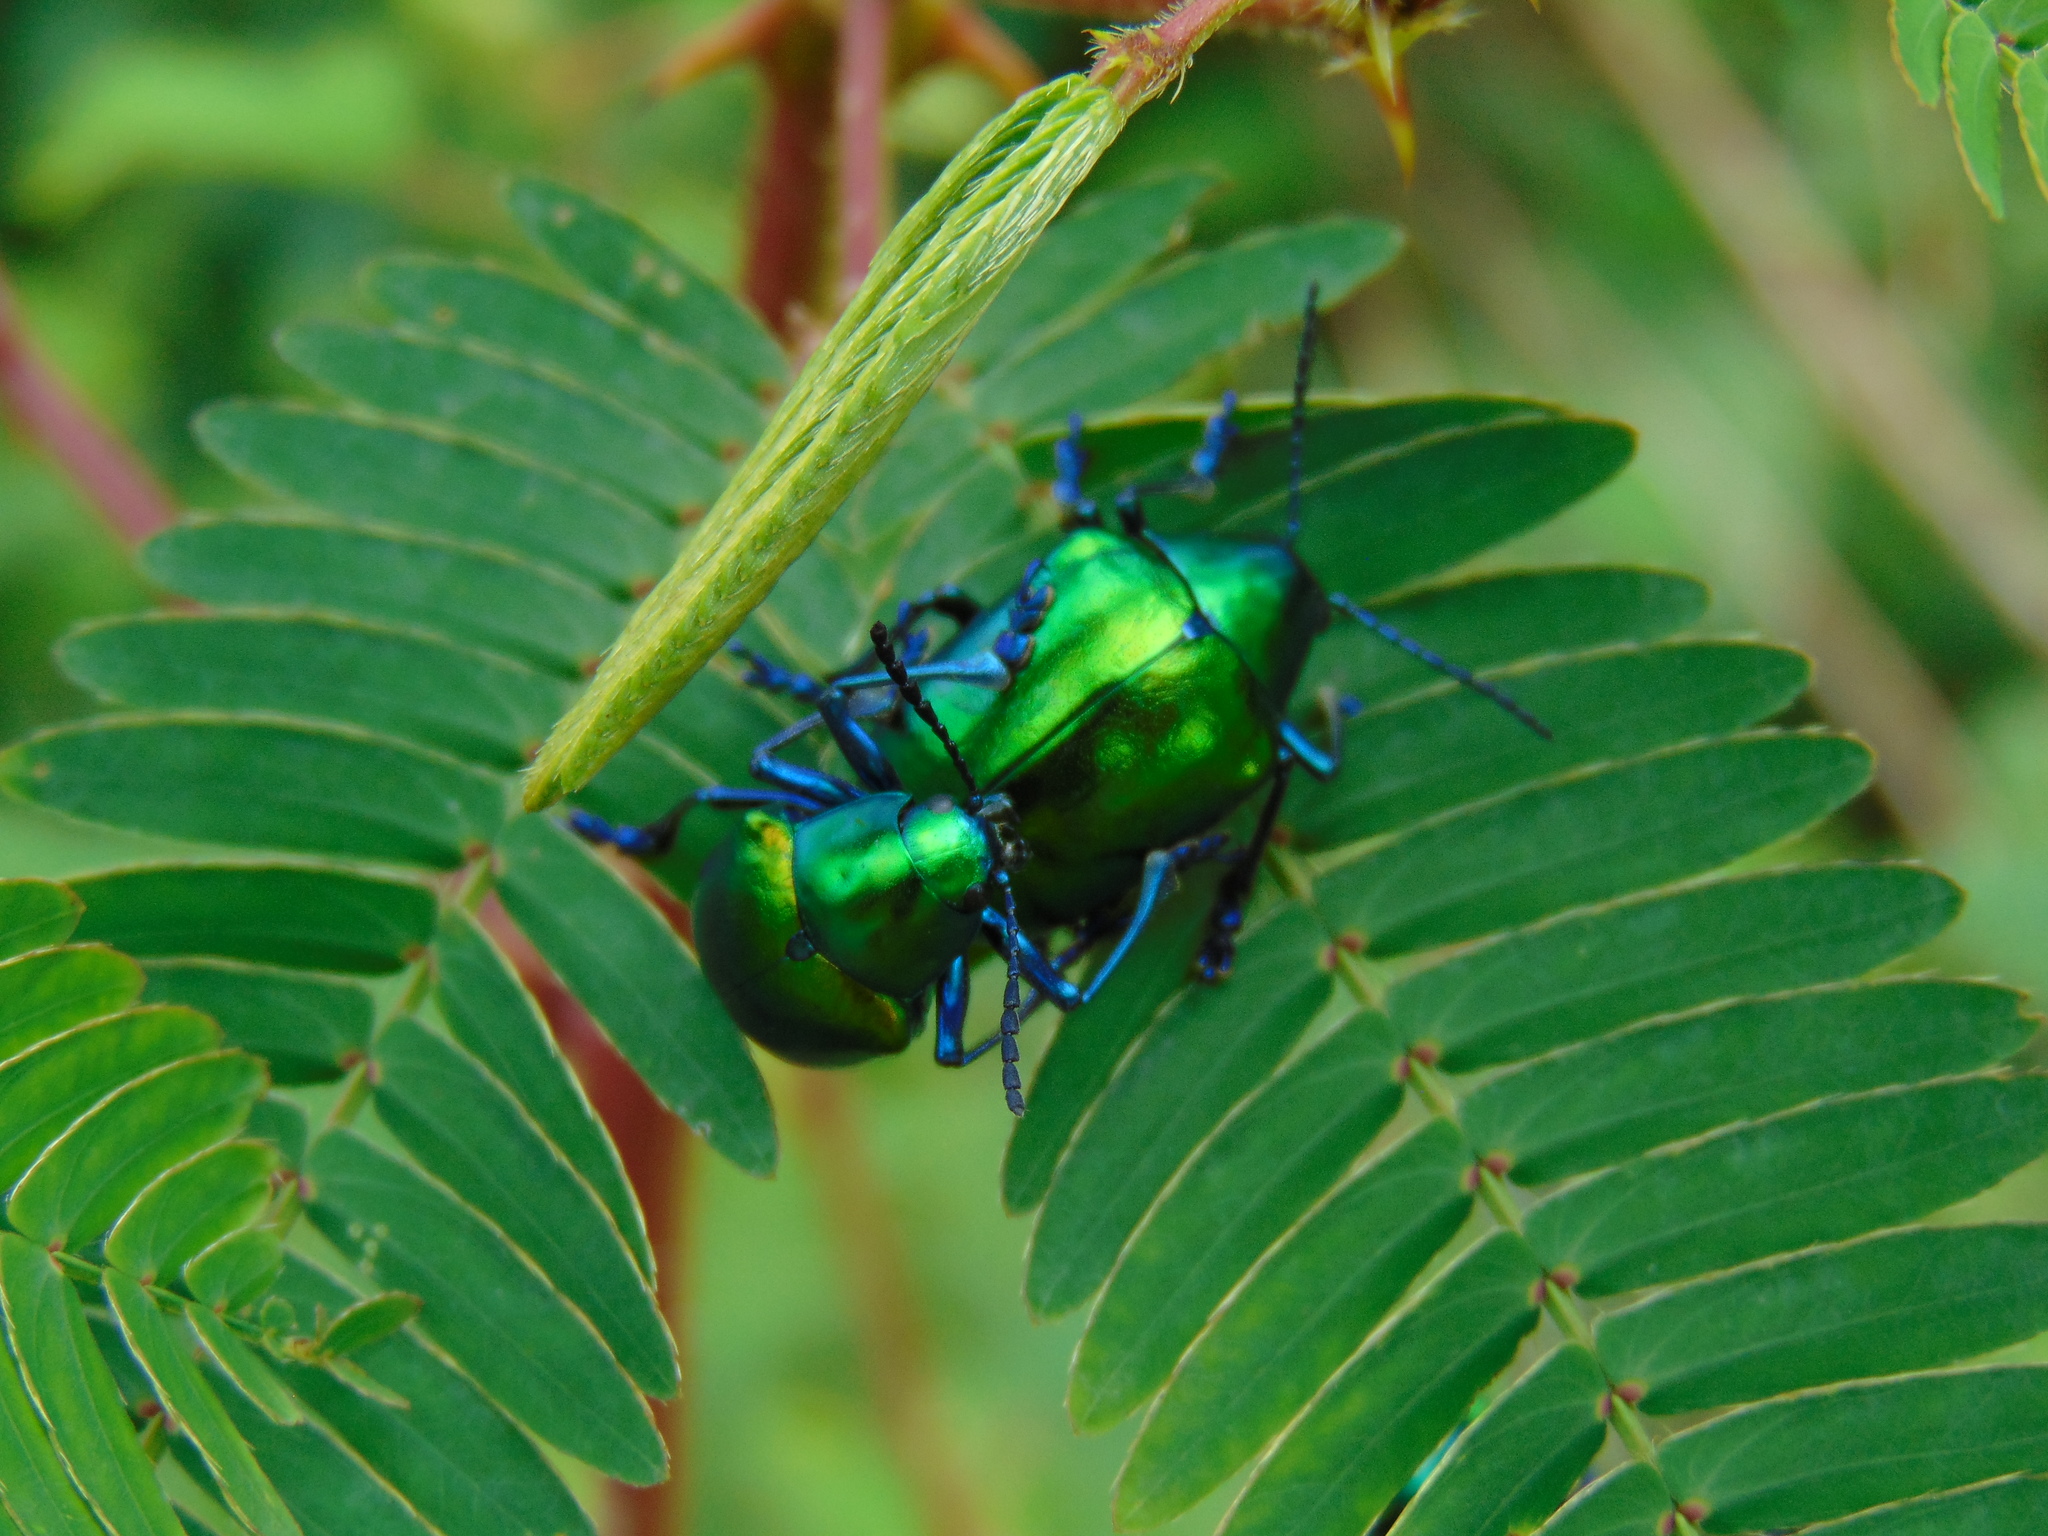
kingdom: Animalia
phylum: Arthropoda
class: Insecta
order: Coleoptera
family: Chrysomelidae
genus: Eumolpus
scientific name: Eumolpus
